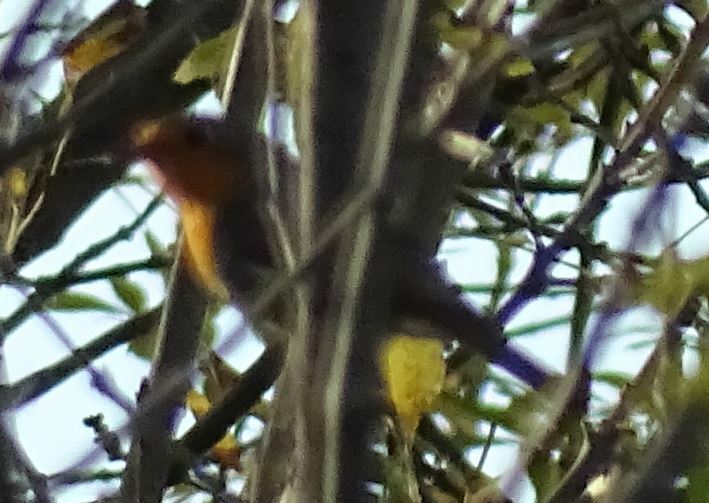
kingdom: Animalia
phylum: Chordata
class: Aves
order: Passeriformes
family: Muscicapidae
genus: Erithacus
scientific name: Erithacus rubecula
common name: European robin
